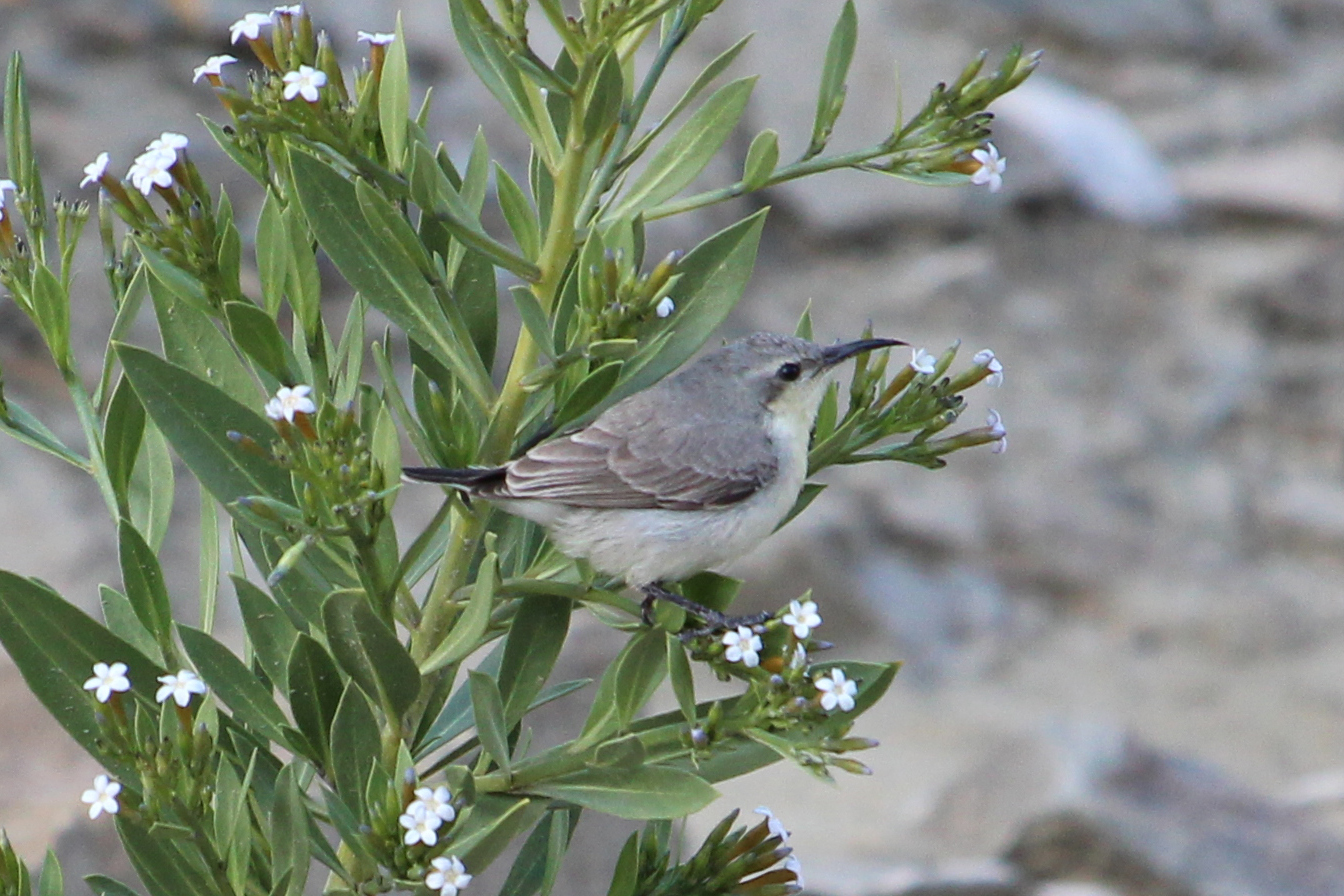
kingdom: Animalia
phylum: Chordata
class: Aves
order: Passeriformes
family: Nectariniidae
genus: Cinnyris
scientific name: Cinnyris asiaticus
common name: Purple sunbird
